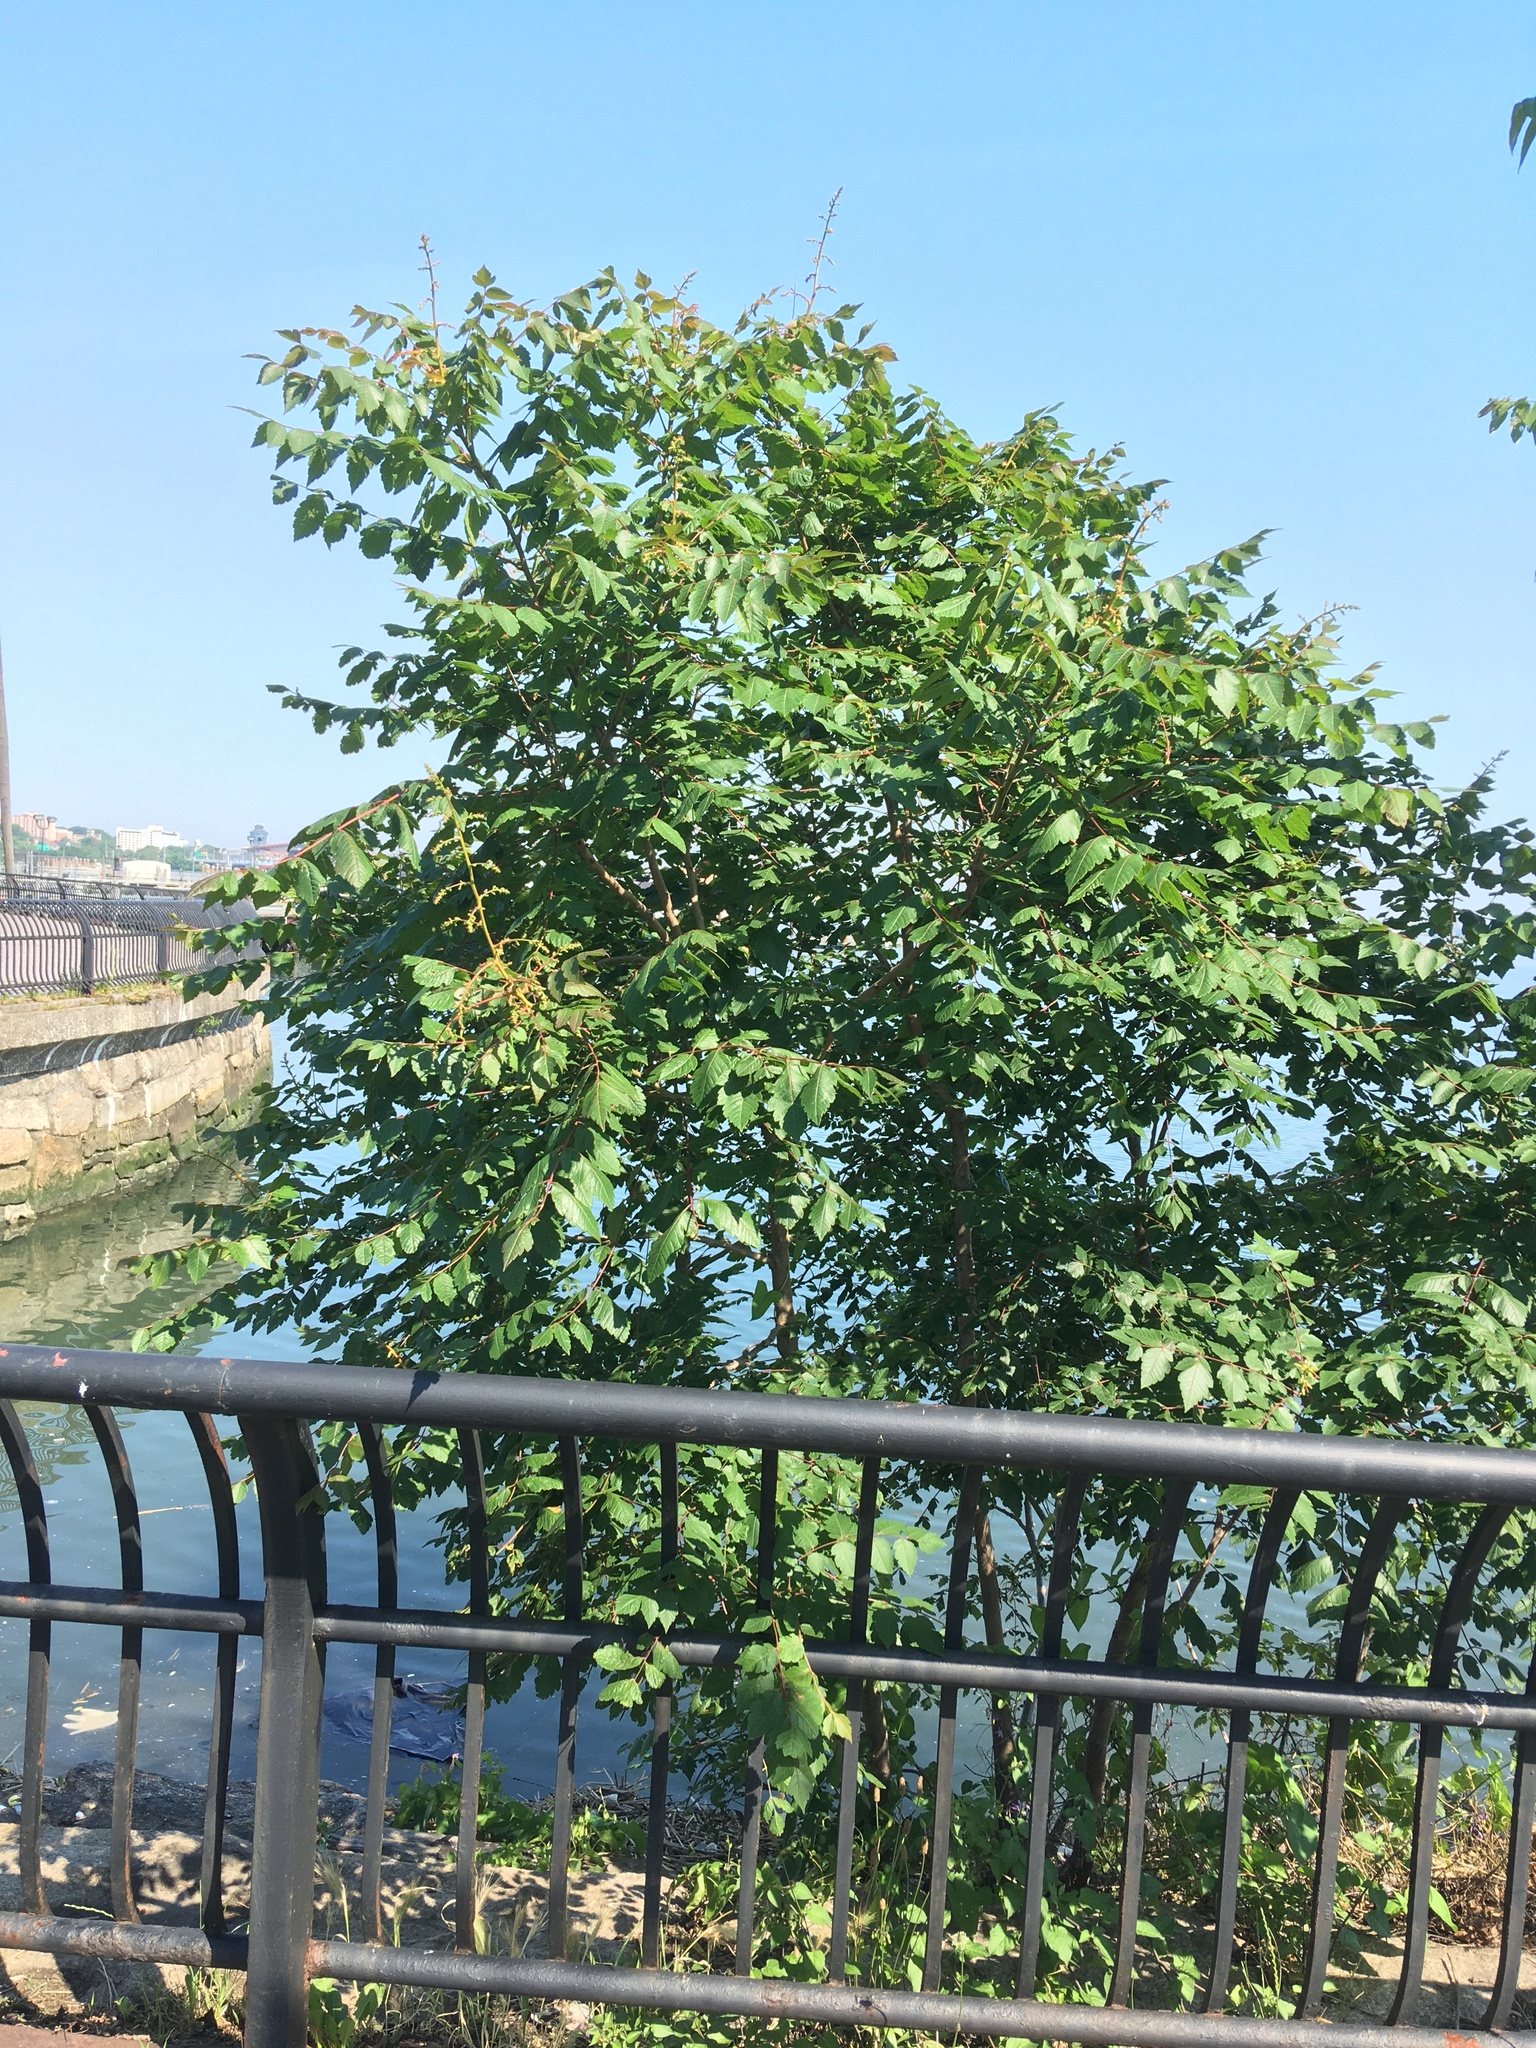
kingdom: Plantae
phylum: Tracheophyta
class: Magnoliopsida
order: Sapindales
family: Sapindaceae
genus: Koelreuteria
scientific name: Koelreuteria paniculata
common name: Pride-of-india
